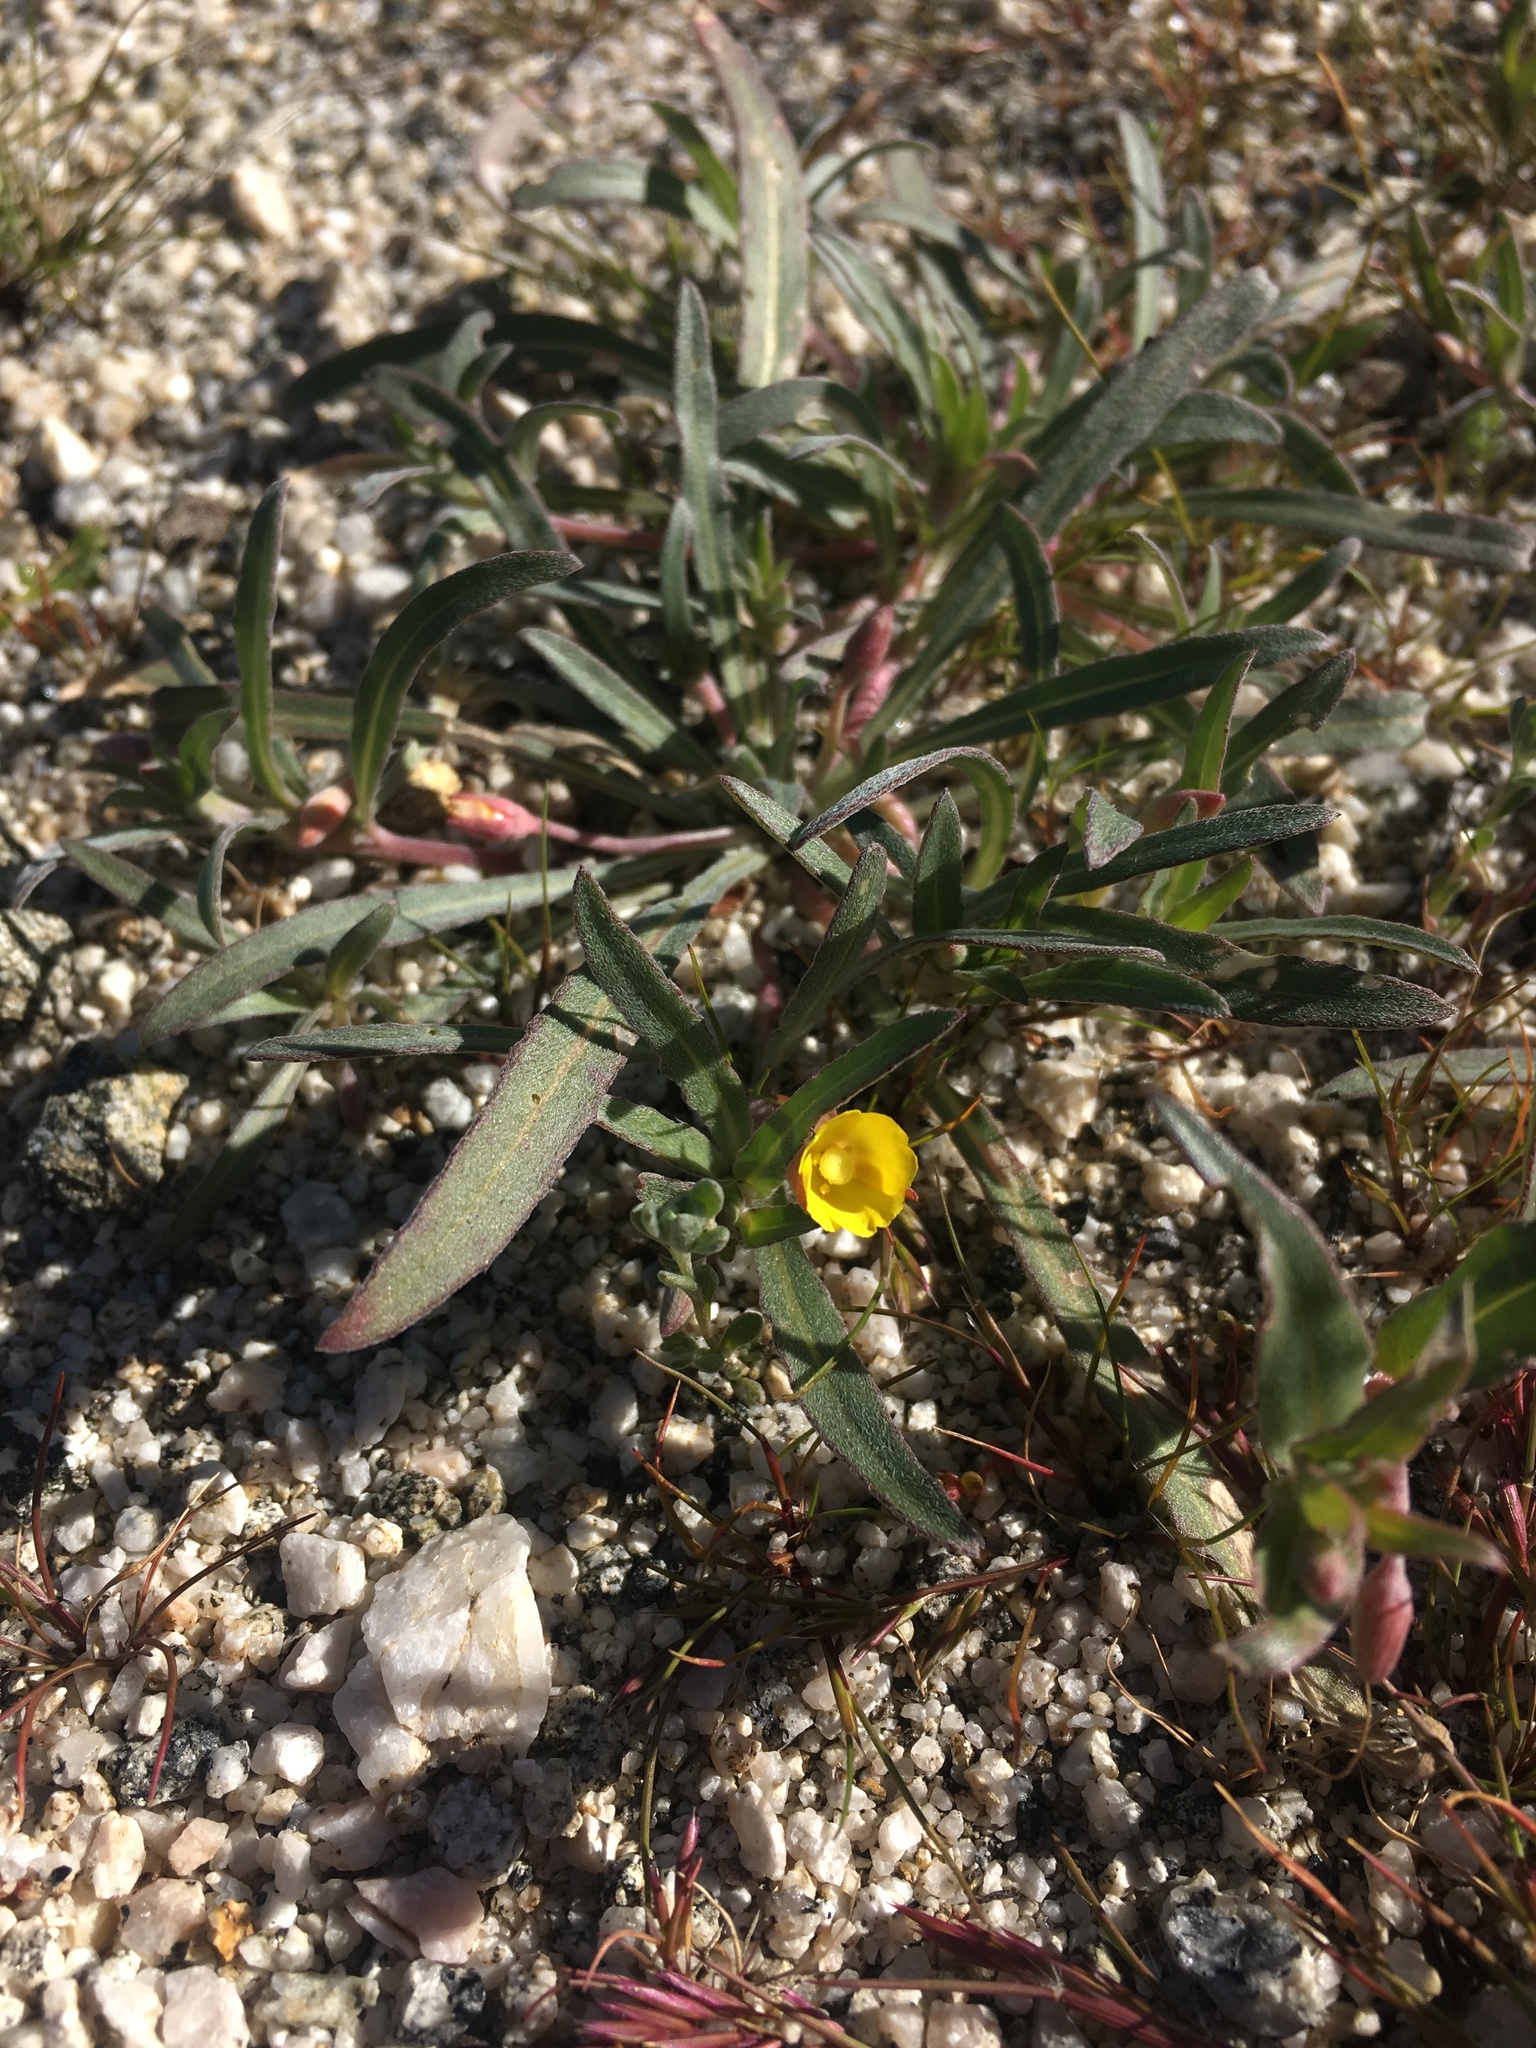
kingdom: Plantae
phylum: Tracheophyta
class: Magnoliopsida
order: Myrtales
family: Onagraceae
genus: Camissoniopsis
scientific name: Camissoniopsis pallida
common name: Paleyellow suncup
